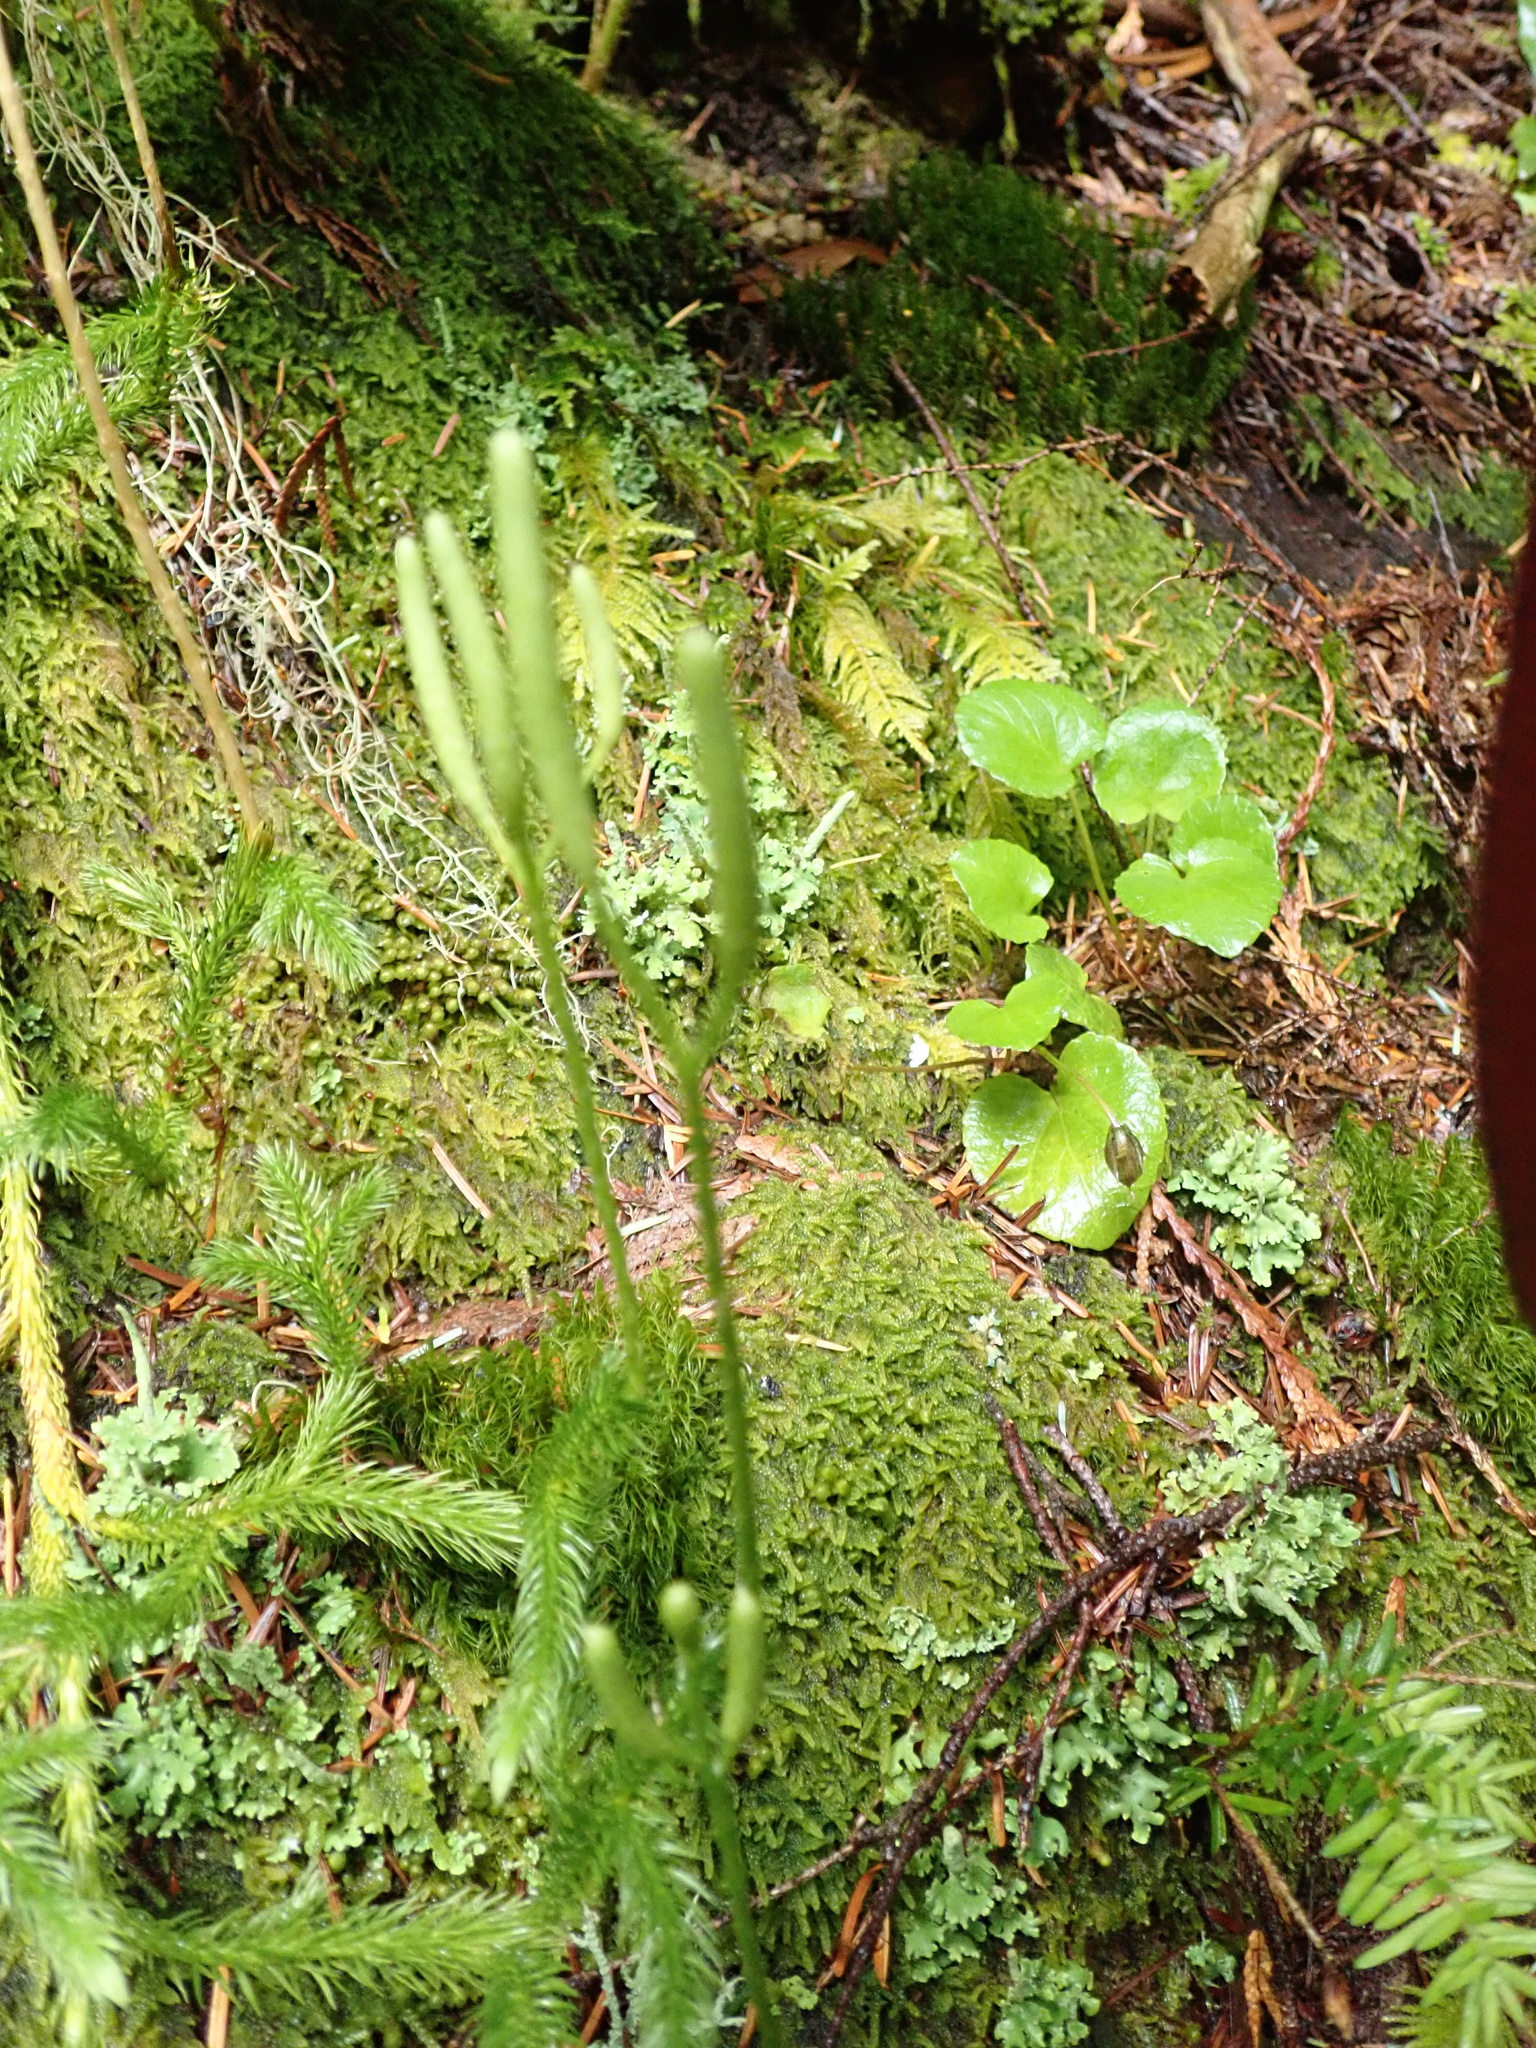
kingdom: Plantae
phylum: Tracheophyta
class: Lycopodiopsida
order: Lycopodiales
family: Lycopodiaceae
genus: Lycopodium
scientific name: Lycopodium clavatum
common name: Stag's-horn clubmoss
